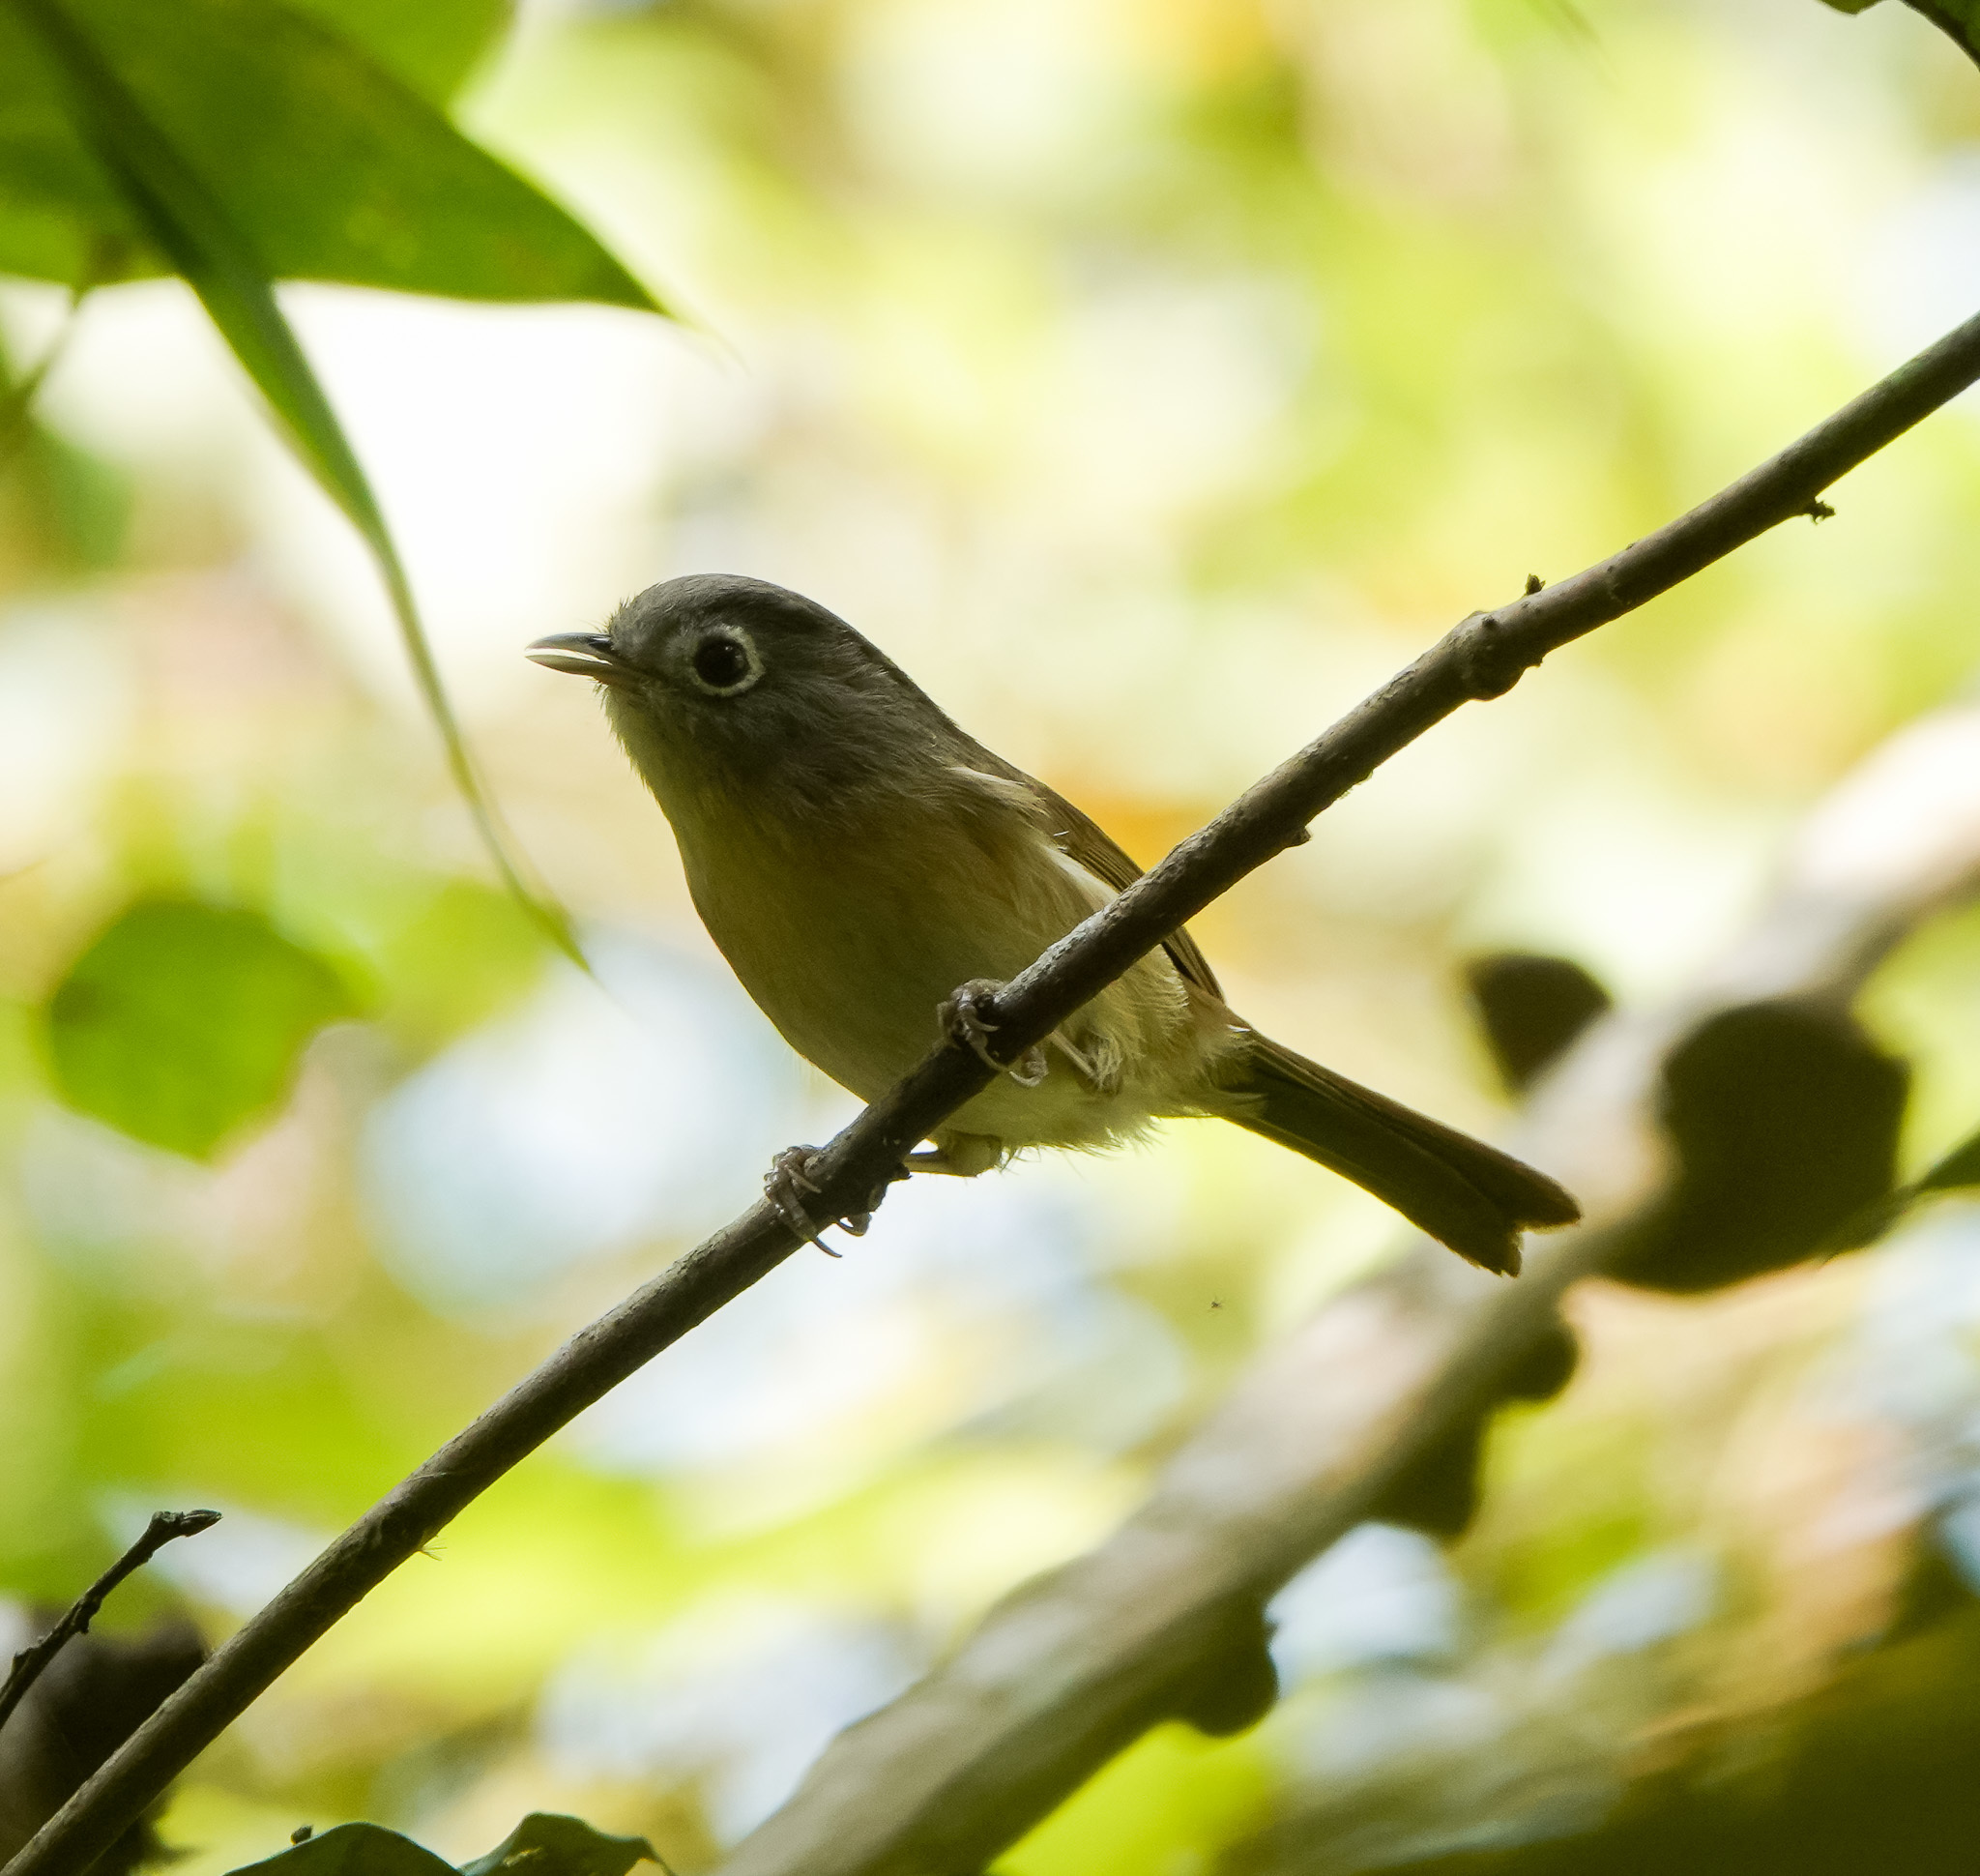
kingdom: Animalia
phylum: Chordata
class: Aves
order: Passeriformes
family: Pellorneidae
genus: Alcippe
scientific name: Alcippe nipalensis
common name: Nepal fulvetta
